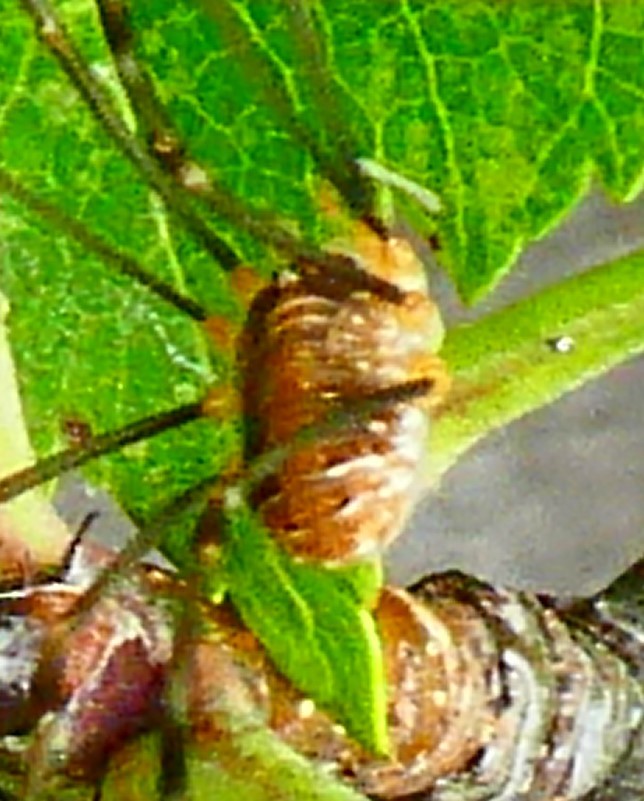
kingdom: Animalia
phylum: Arthropoda
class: Arachnida
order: Opiliones
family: Phalangiidae
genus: Opilio
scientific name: Opilio canestrinii
